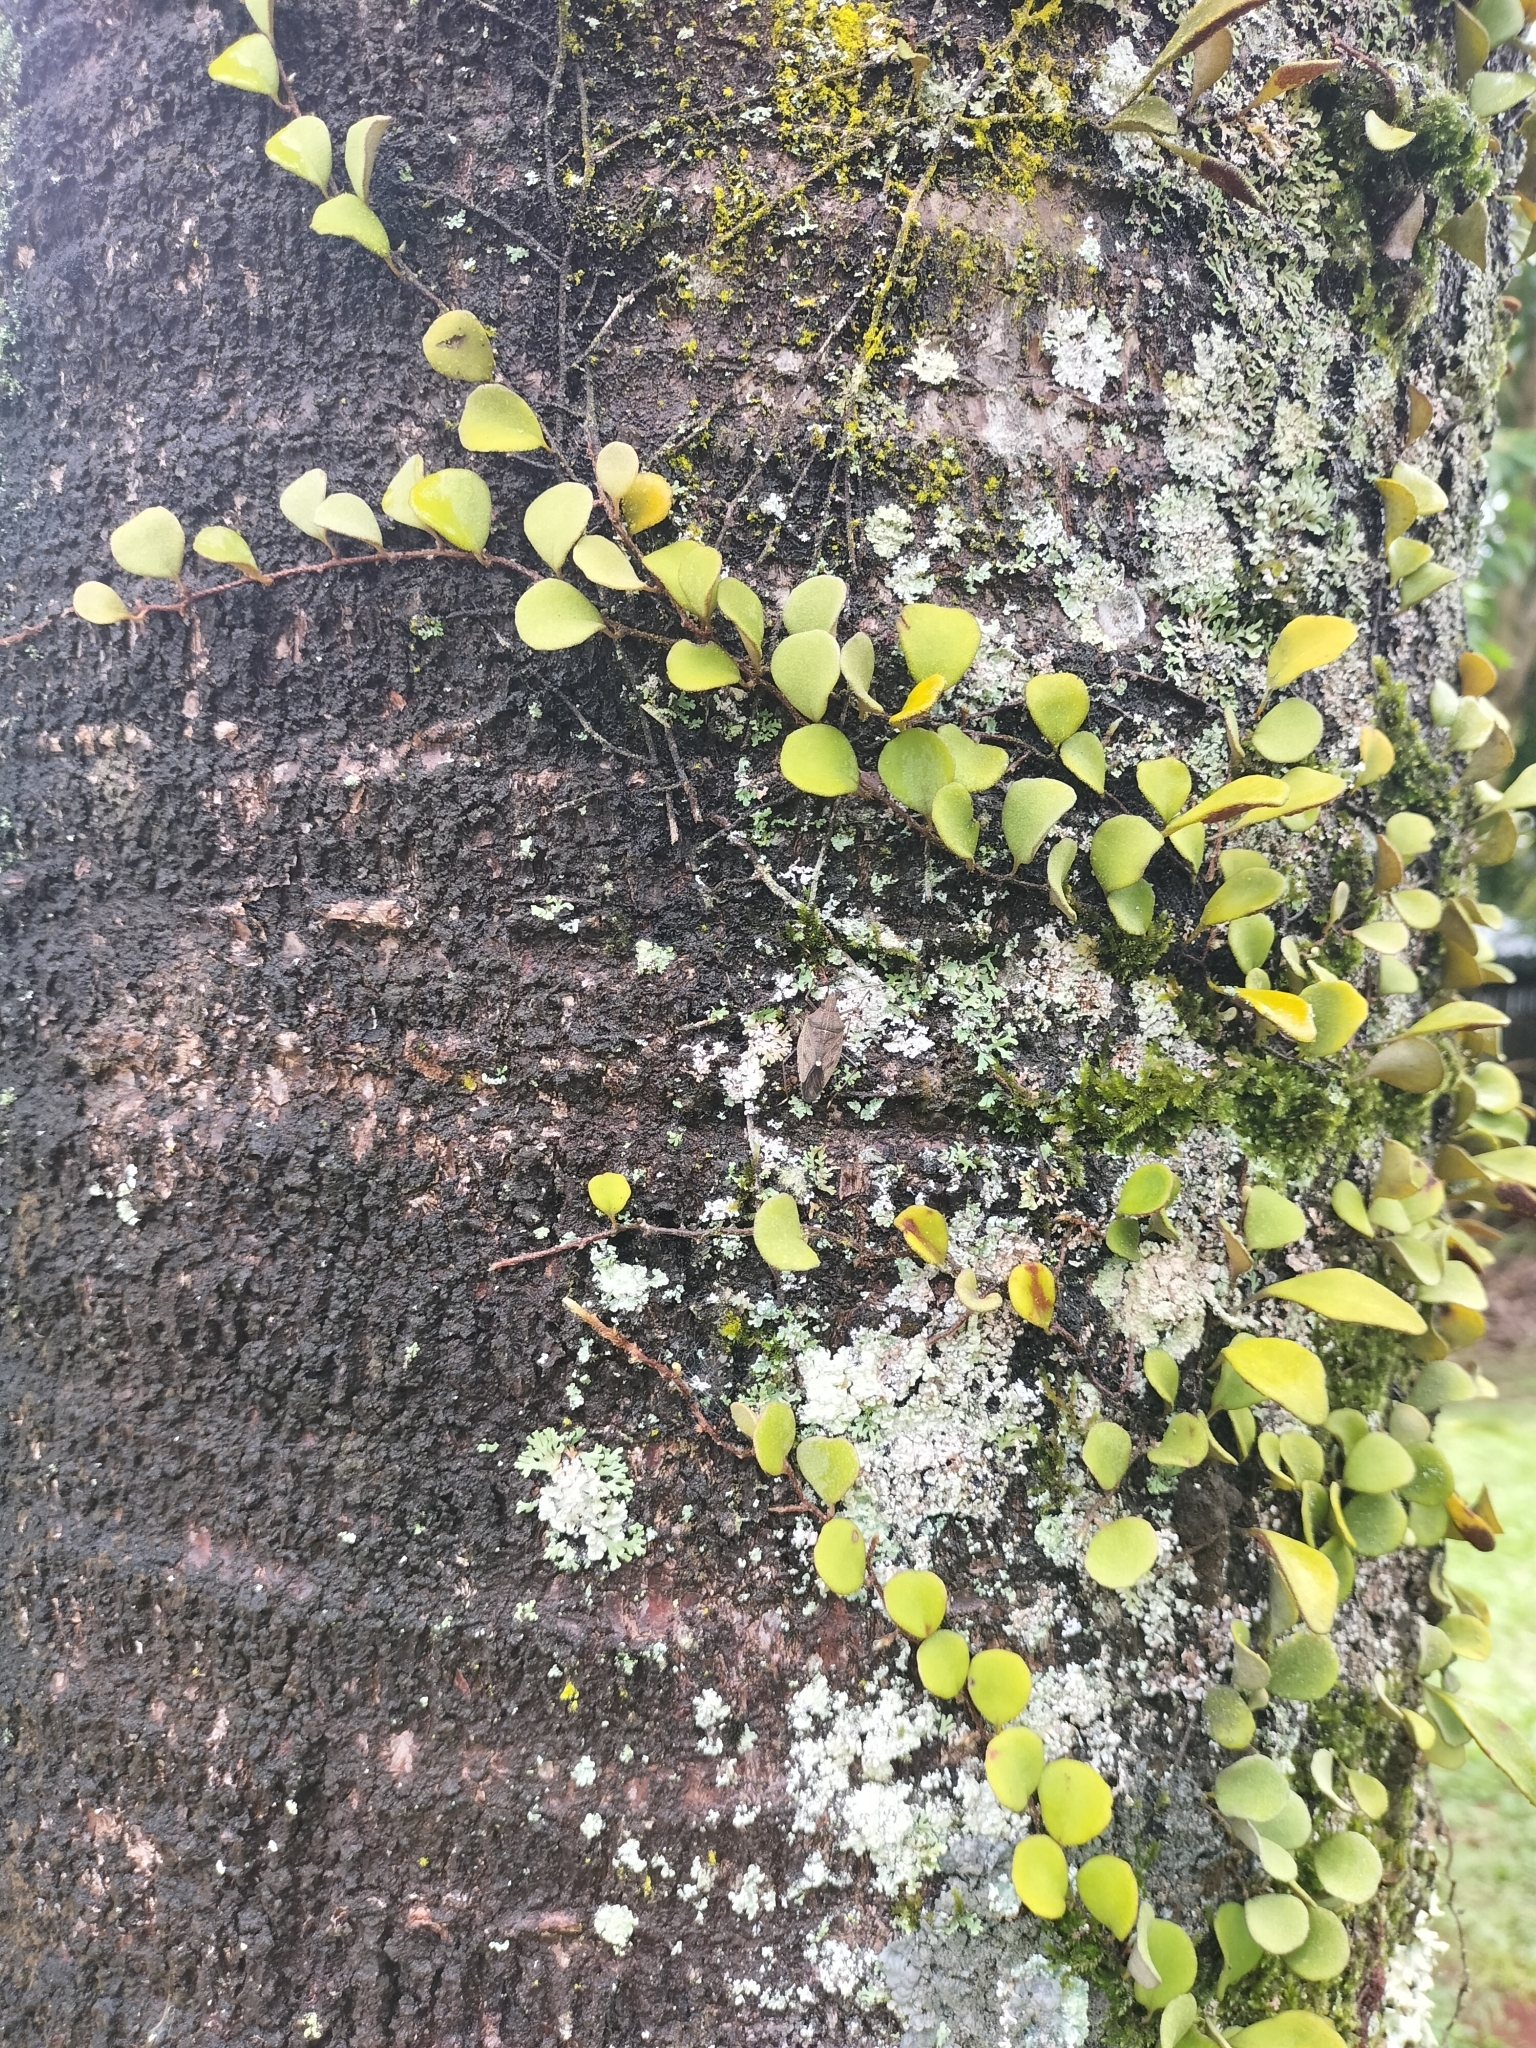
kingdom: Plantae
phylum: Tracheophyta
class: Polypodiopsida
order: Polypodiales
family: Polypodiaceae
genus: Pyrrosia
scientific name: Pyrrosia rupestris
